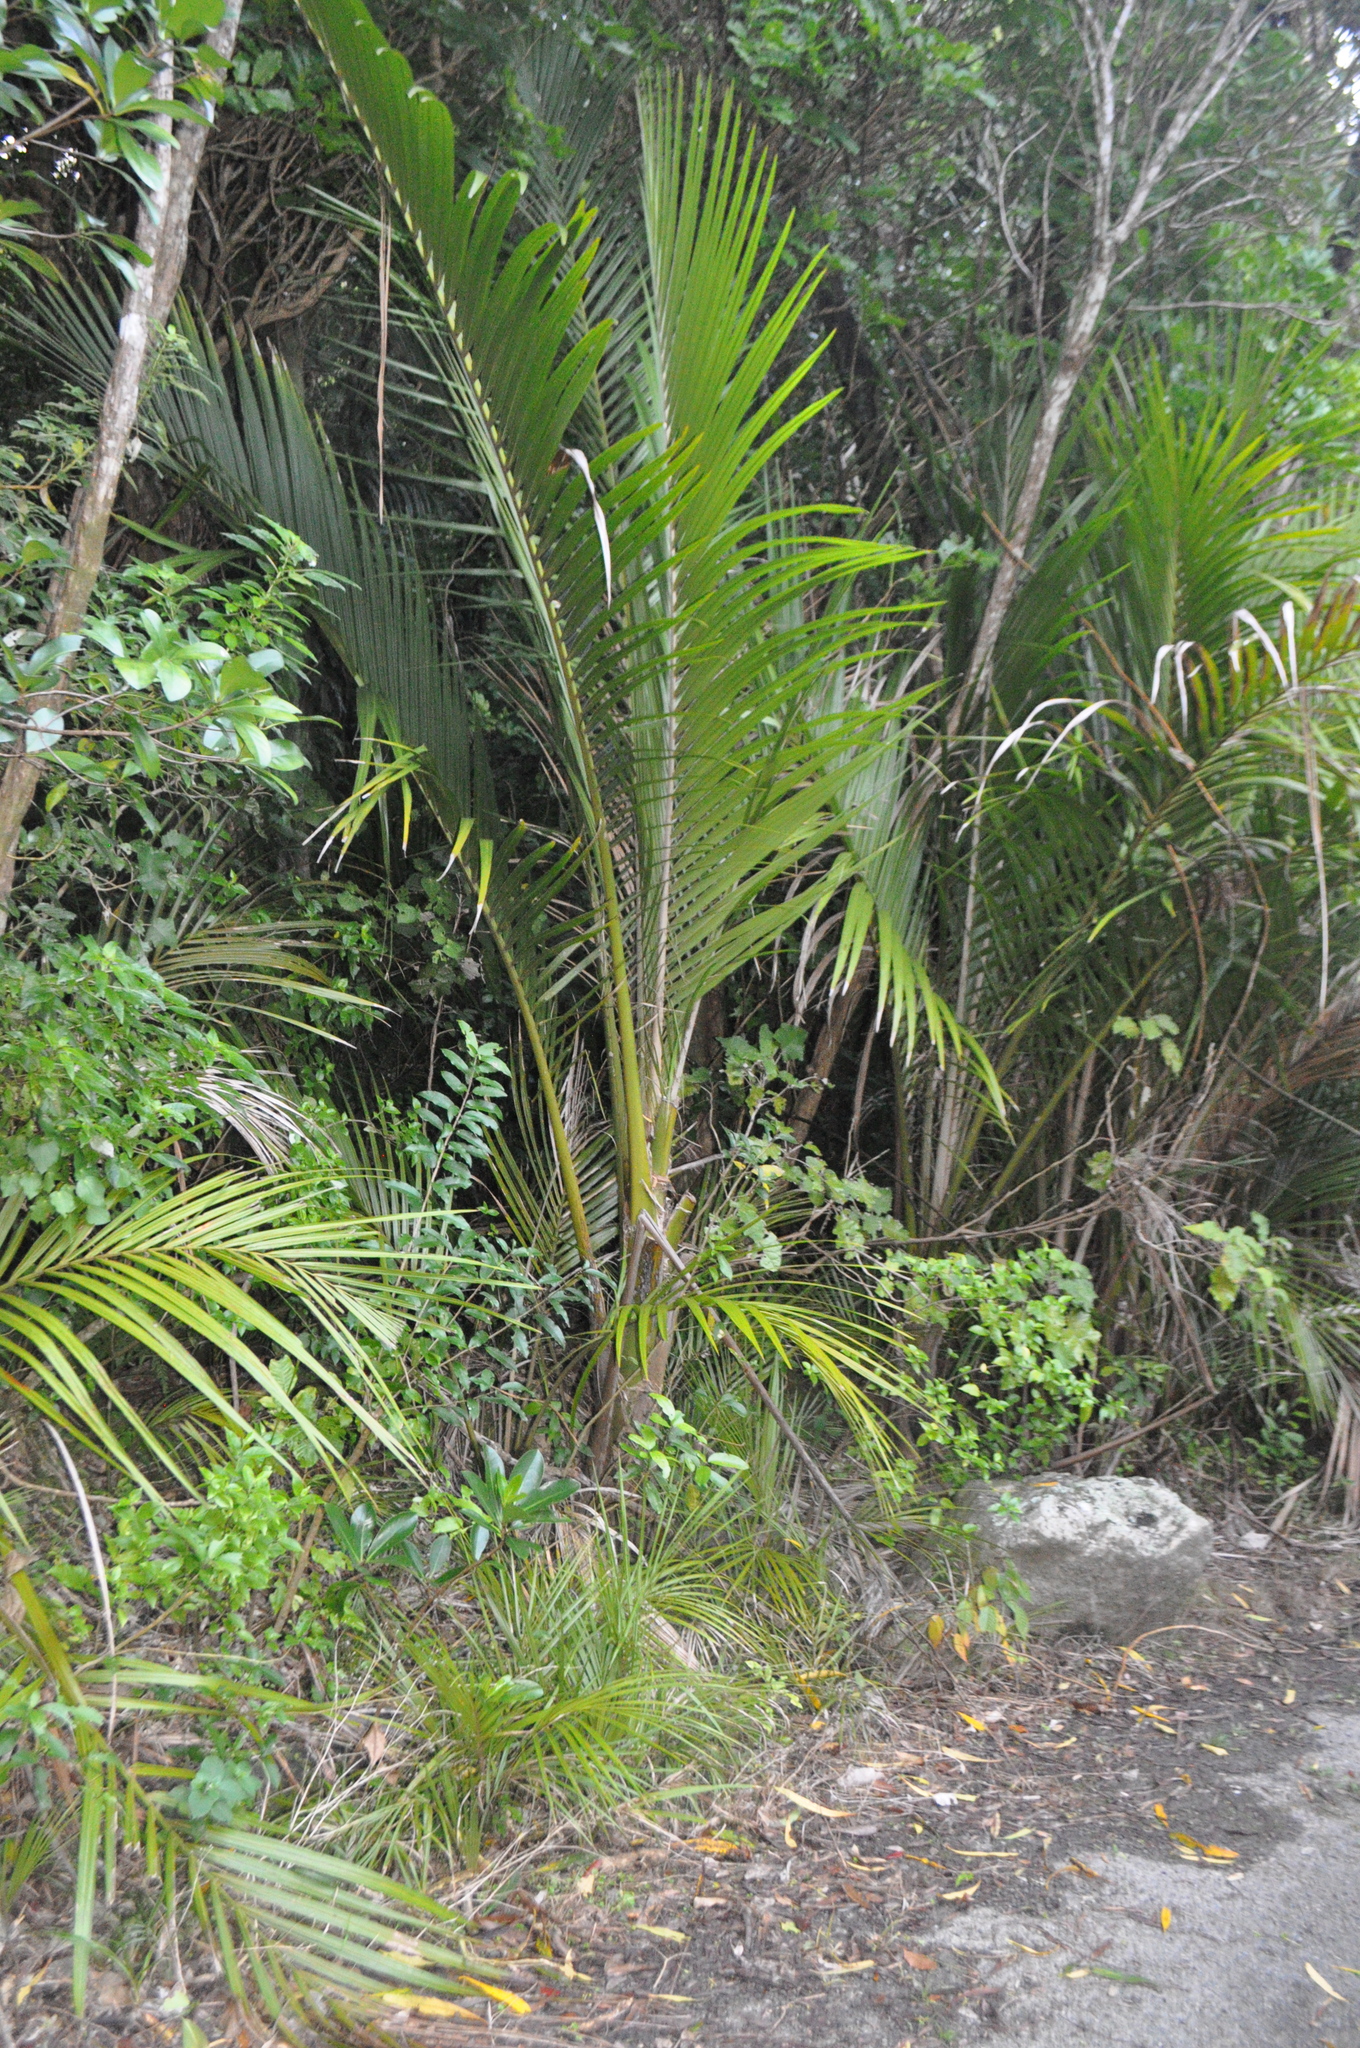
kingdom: Plantae
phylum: Tracheophyta
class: Liliopsida
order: Arecales
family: Arecaceae
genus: Rhopalostylis
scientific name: Rhopalostylis sapida
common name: Feather-duster palm
